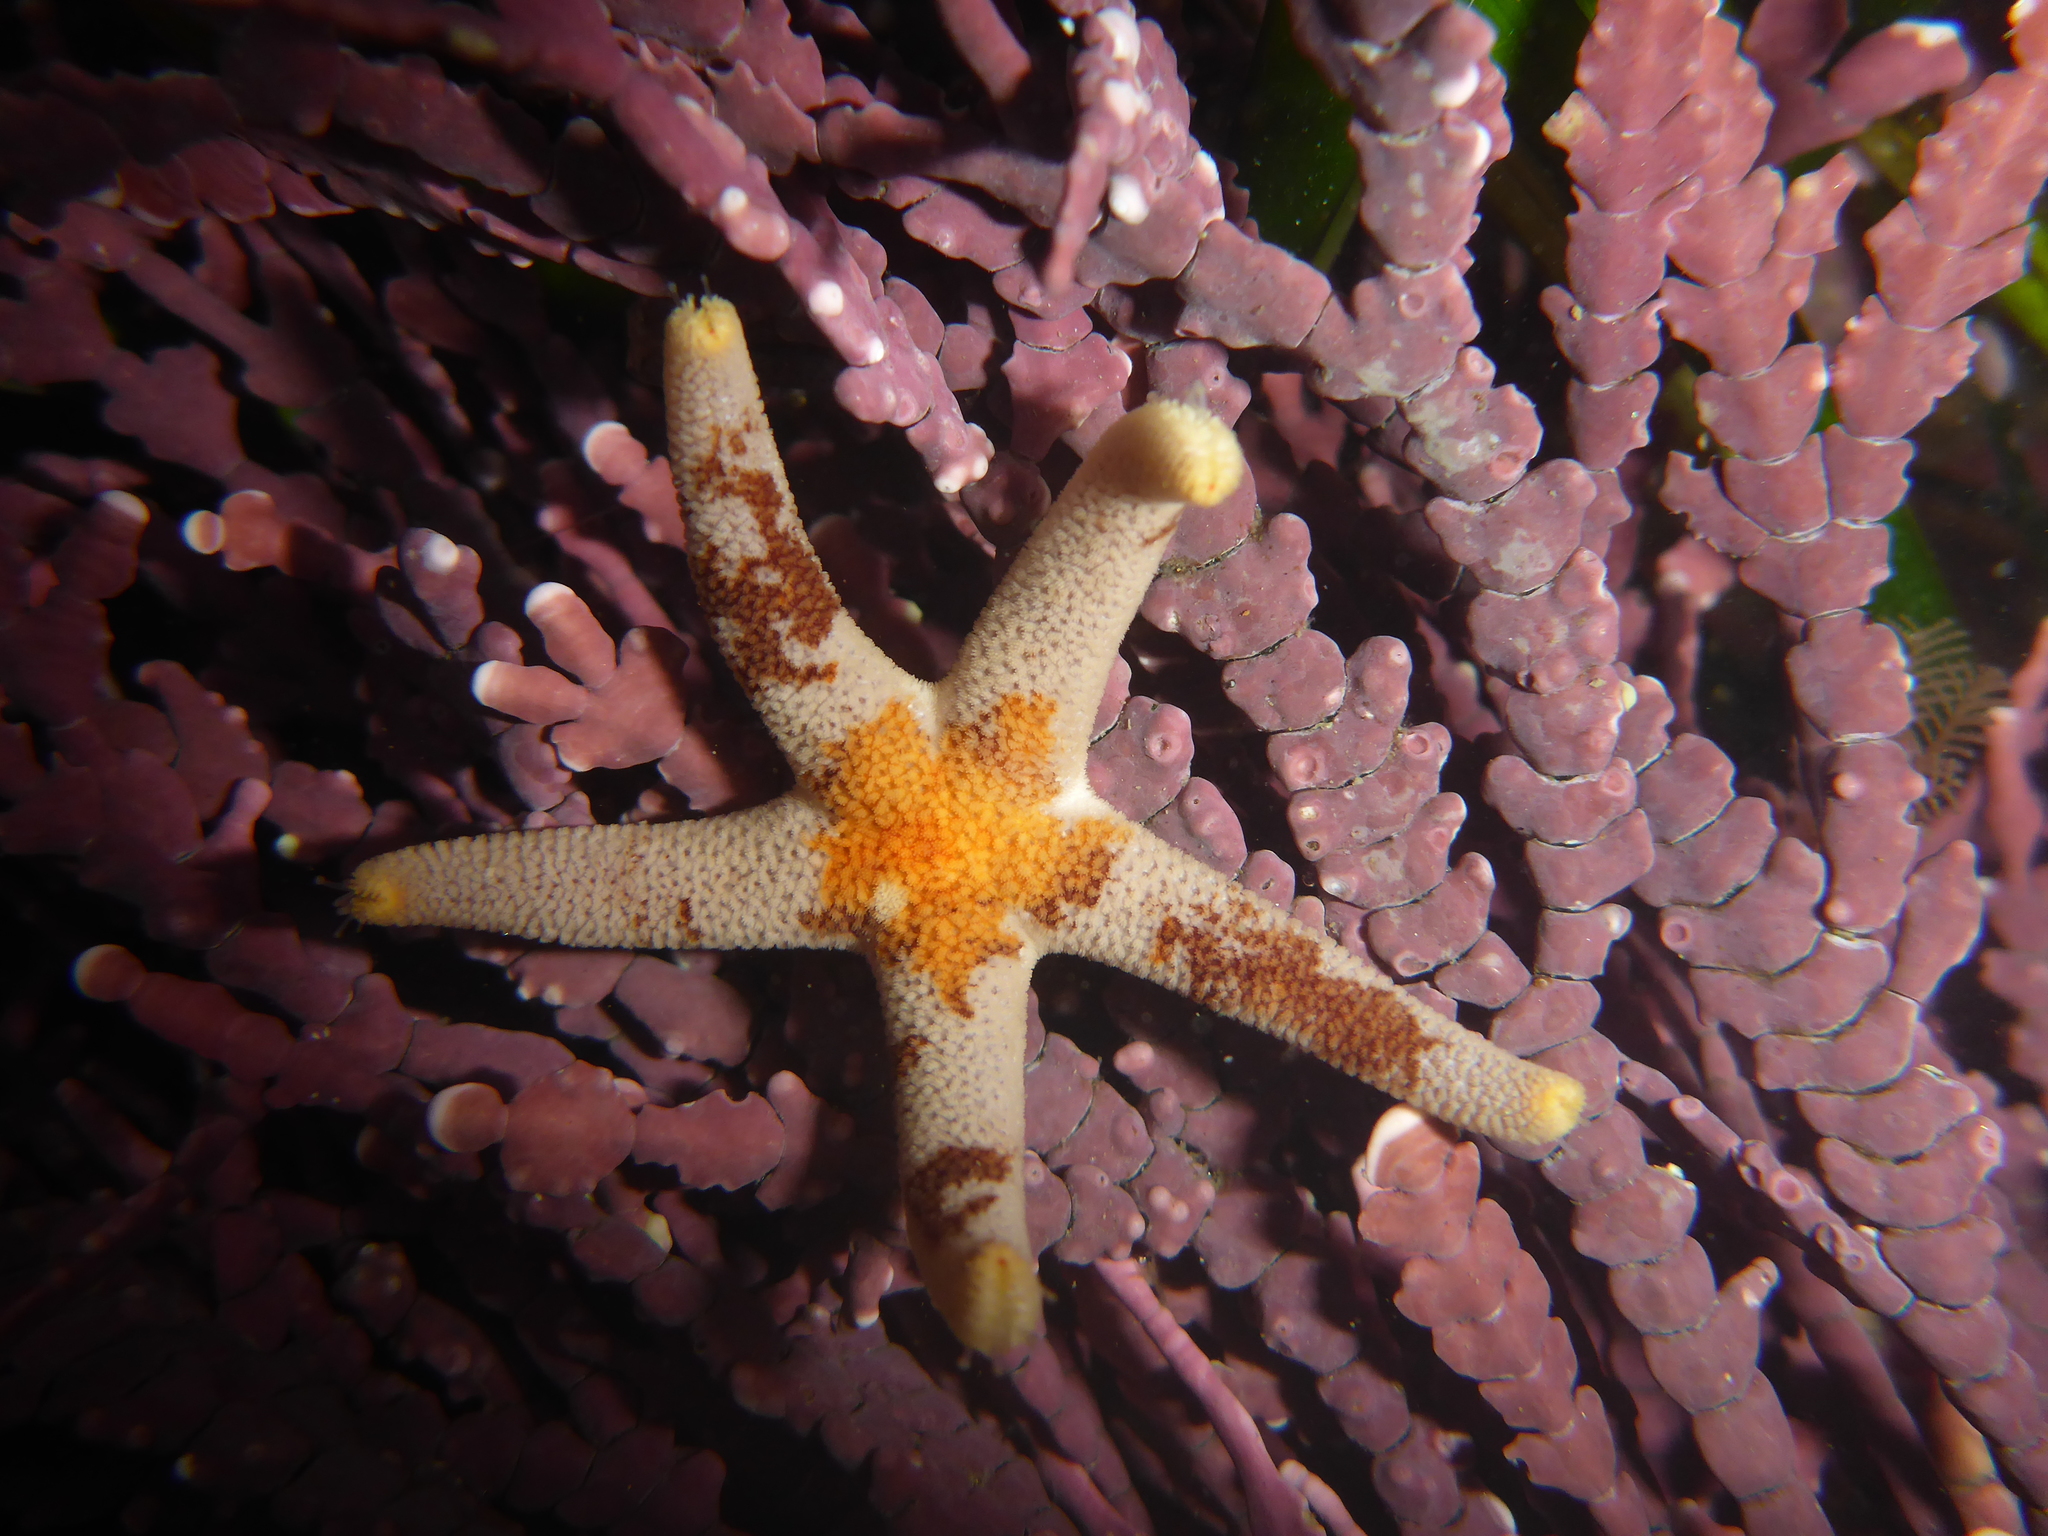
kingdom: Animalia
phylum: Echinodermata
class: Asteroidea
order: Spinulosida
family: Echinasteridae
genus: Henricia
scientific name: Henricia pumila
